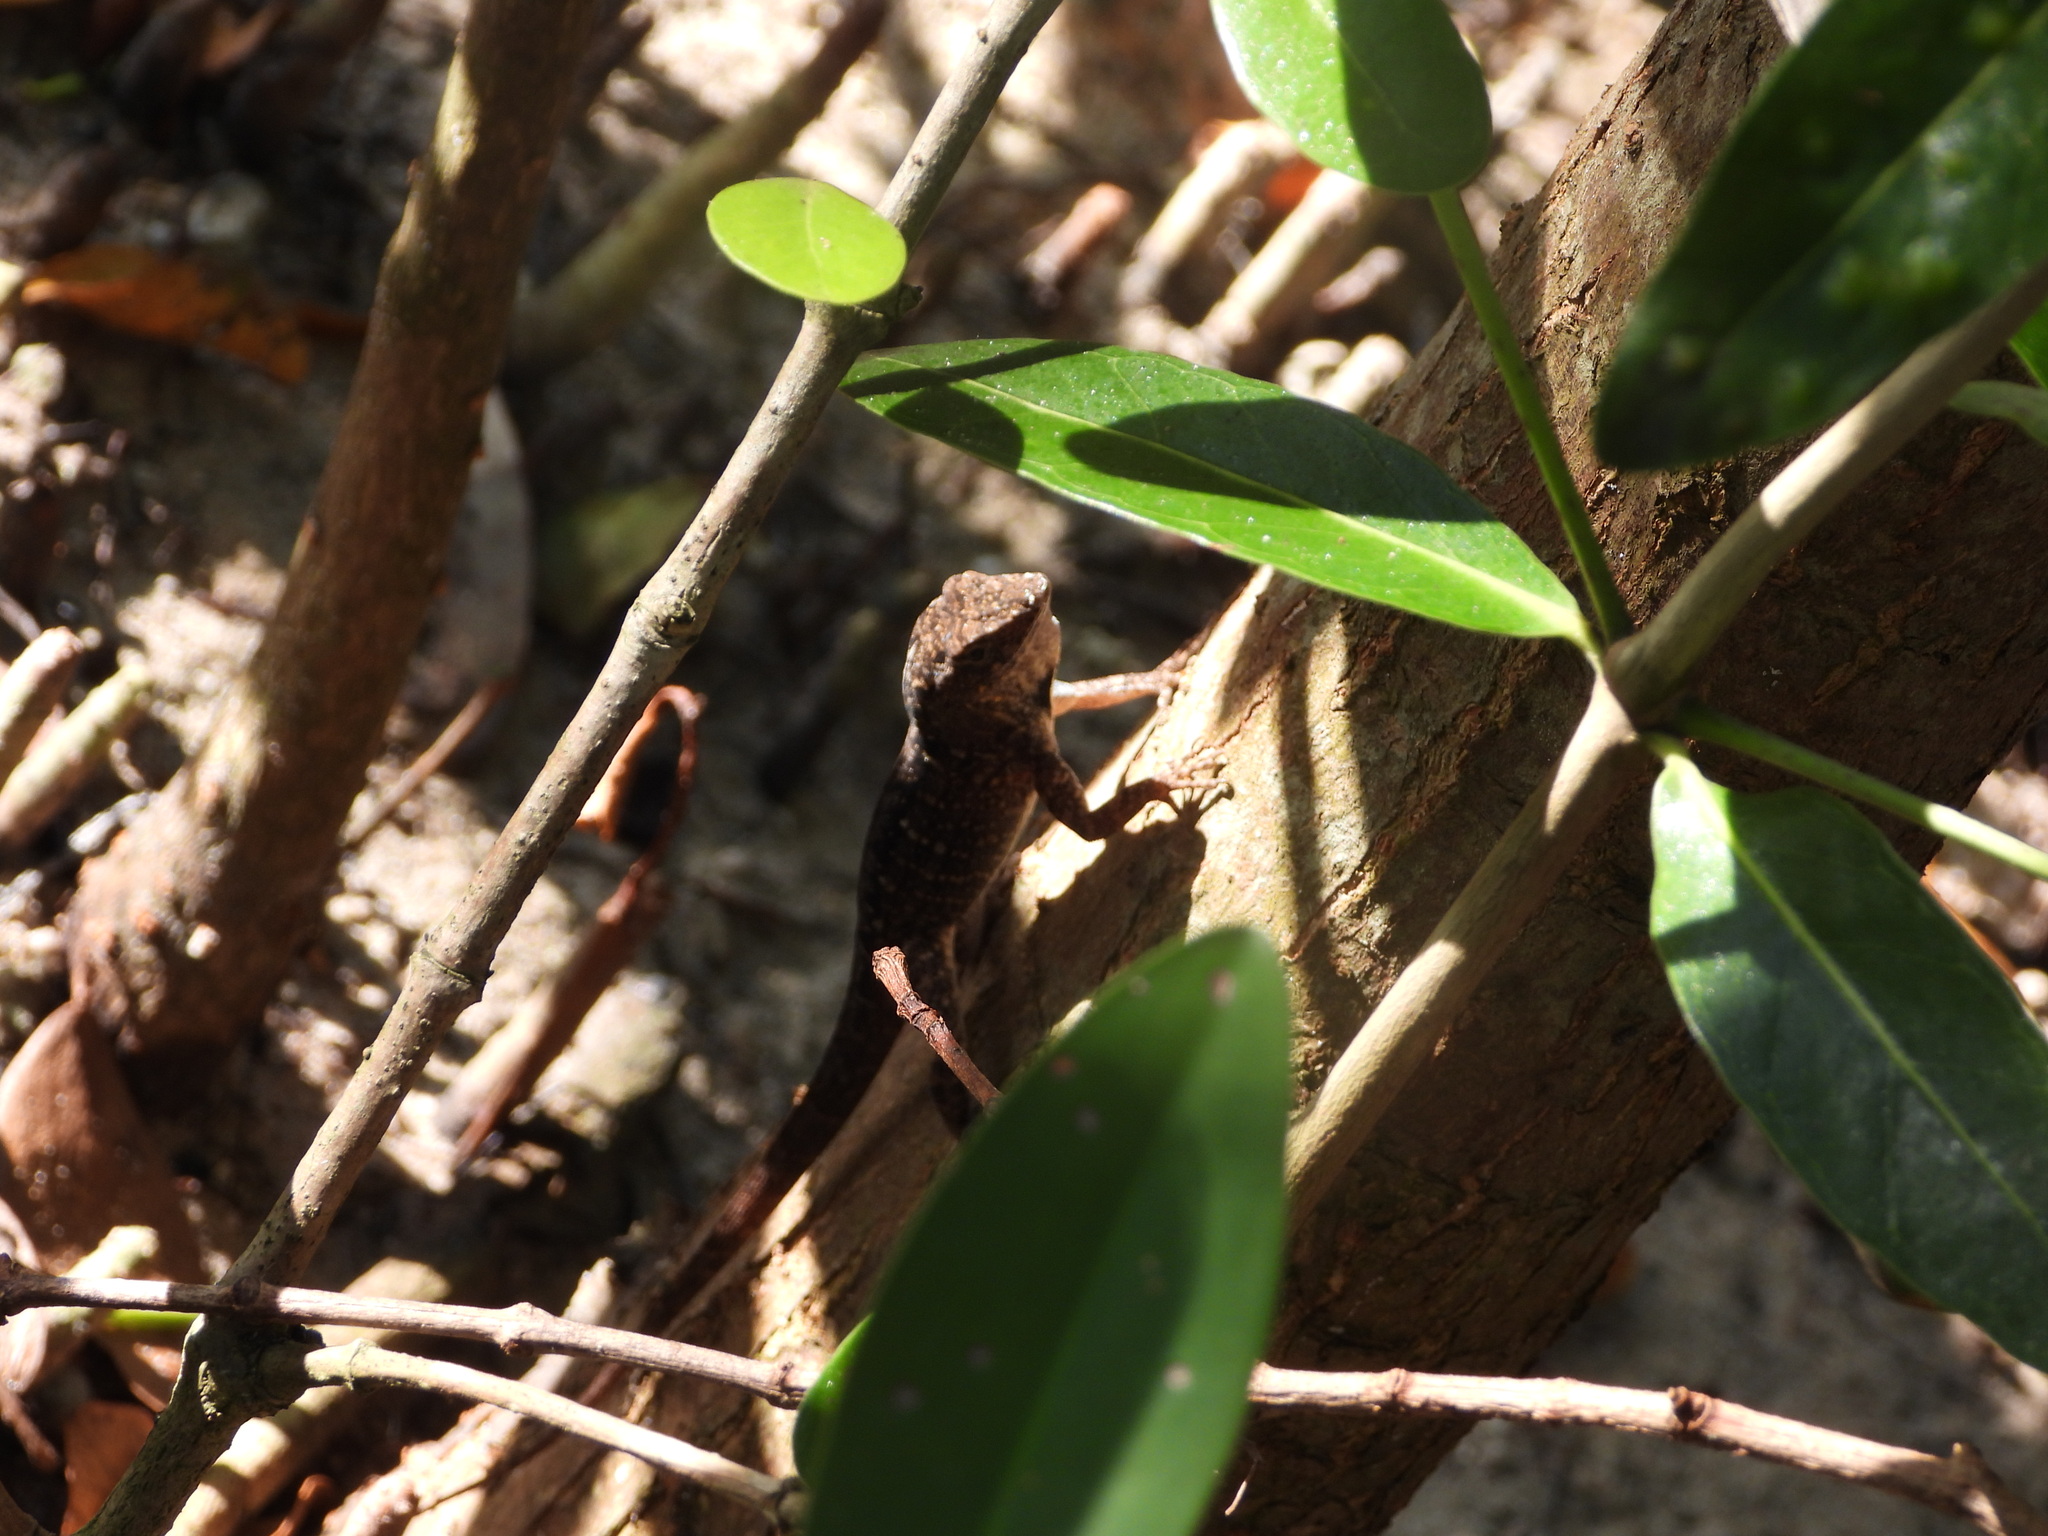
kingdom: Animalia
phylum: Chordata
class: Squamata
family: Dactyloidae
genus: Anolis
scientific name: Anolis sagrei
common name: Brown anole
